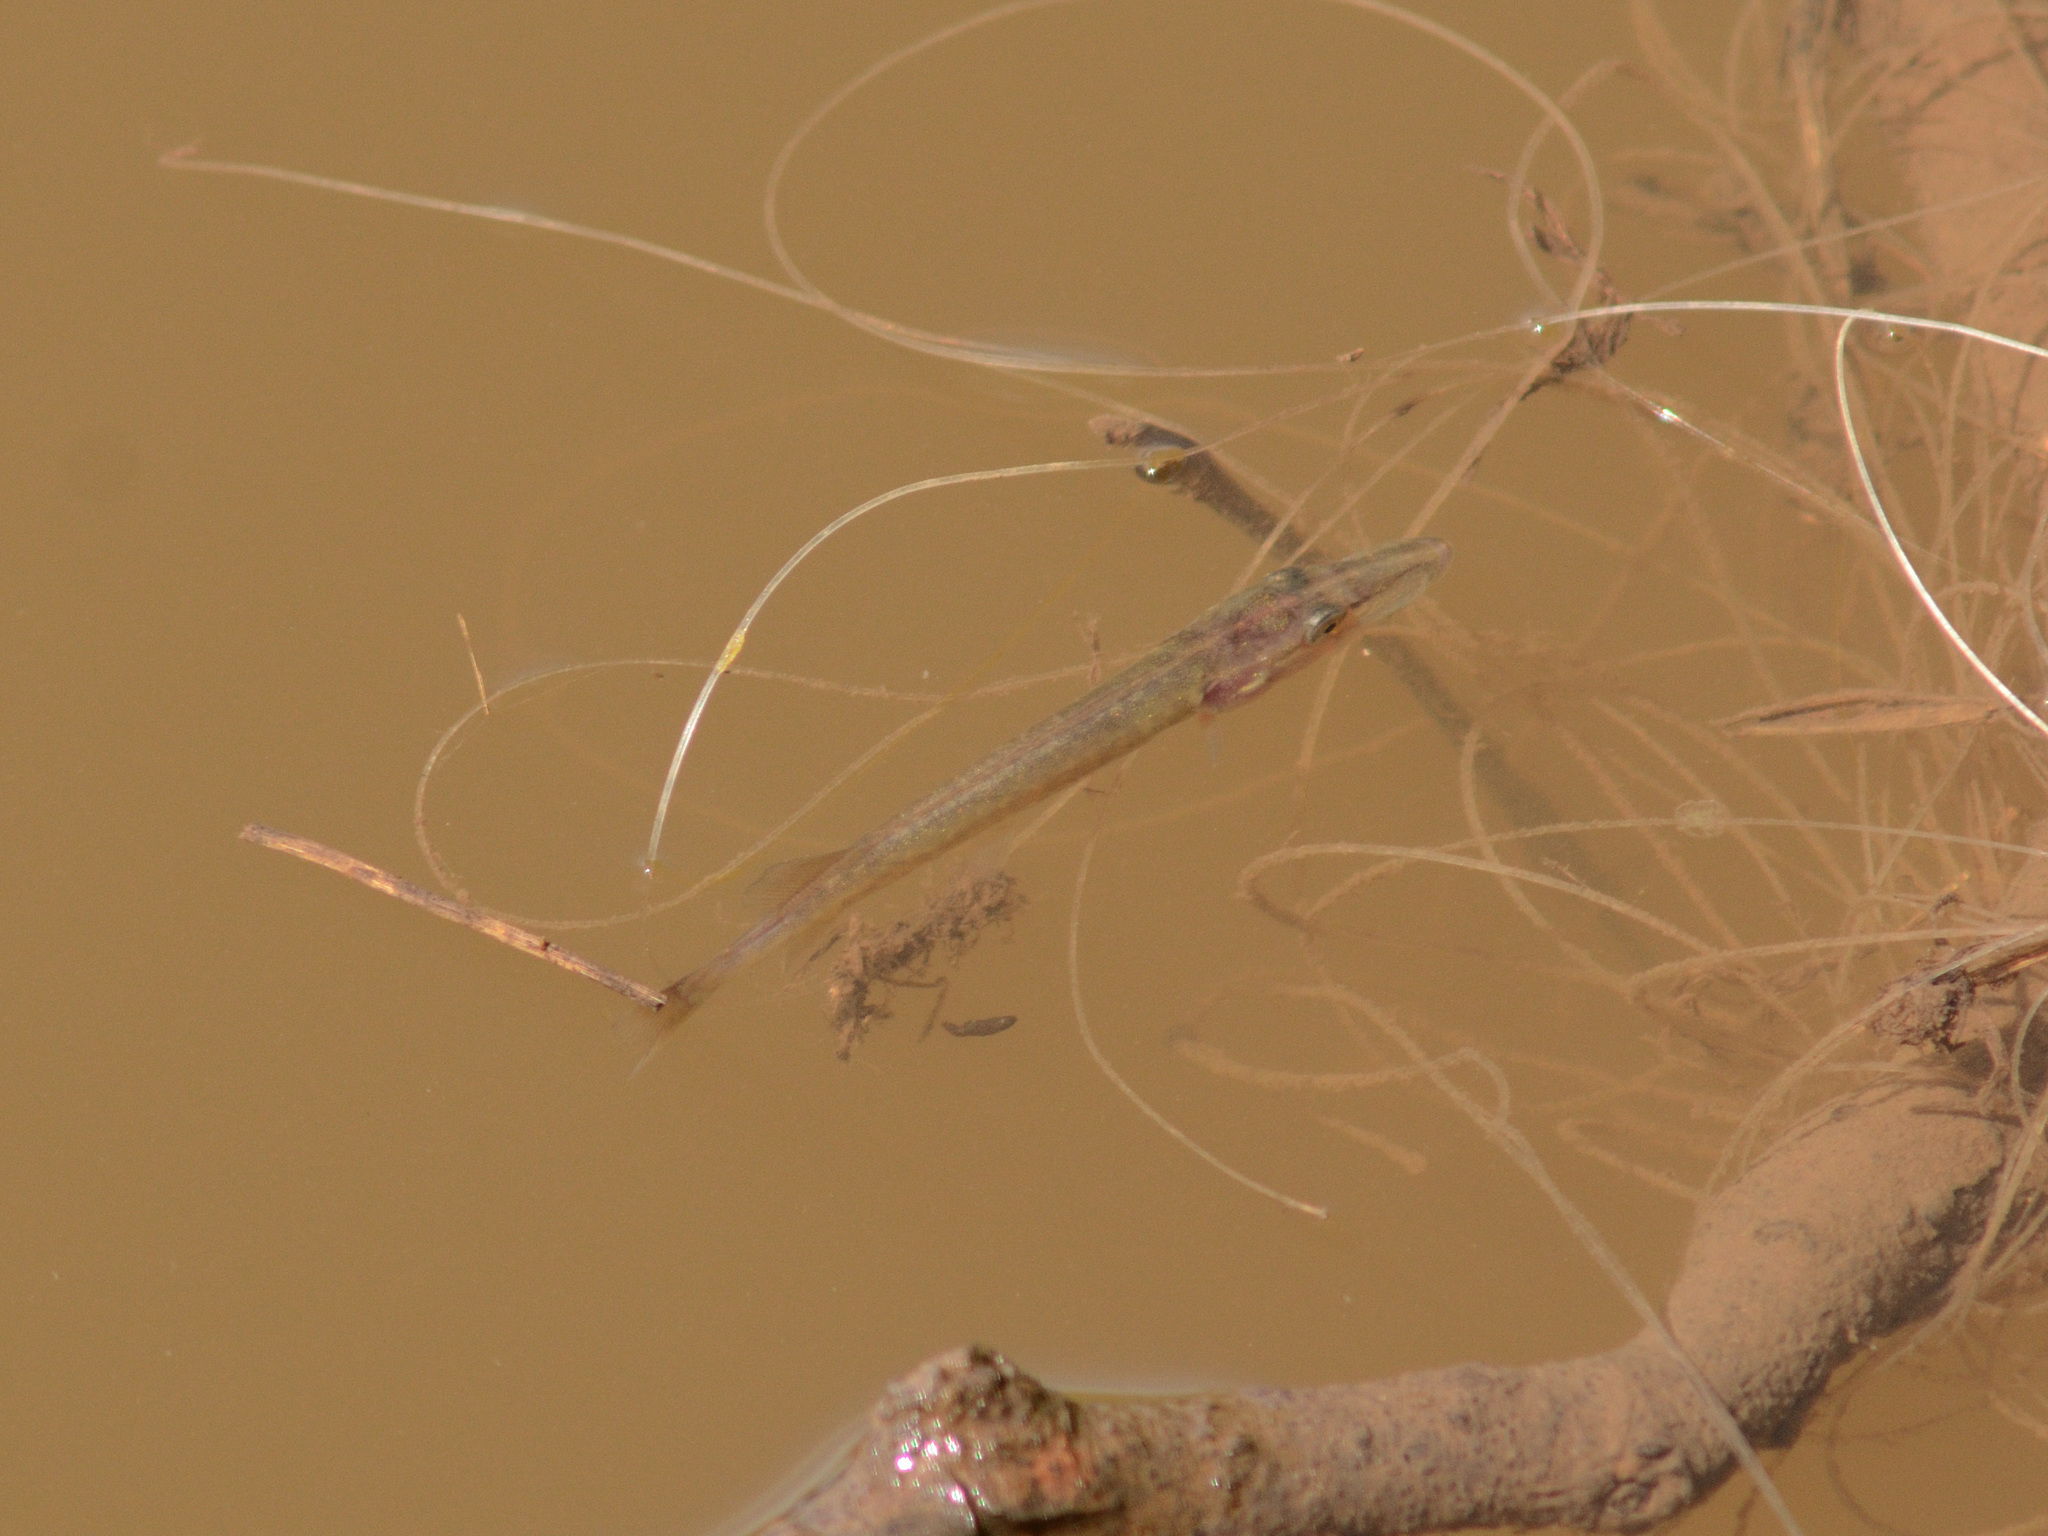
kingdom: Animalia
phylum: Chordata
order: Esociformes
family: Esocidae
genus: Esox
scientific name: Esox lucius
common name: Northern pike
